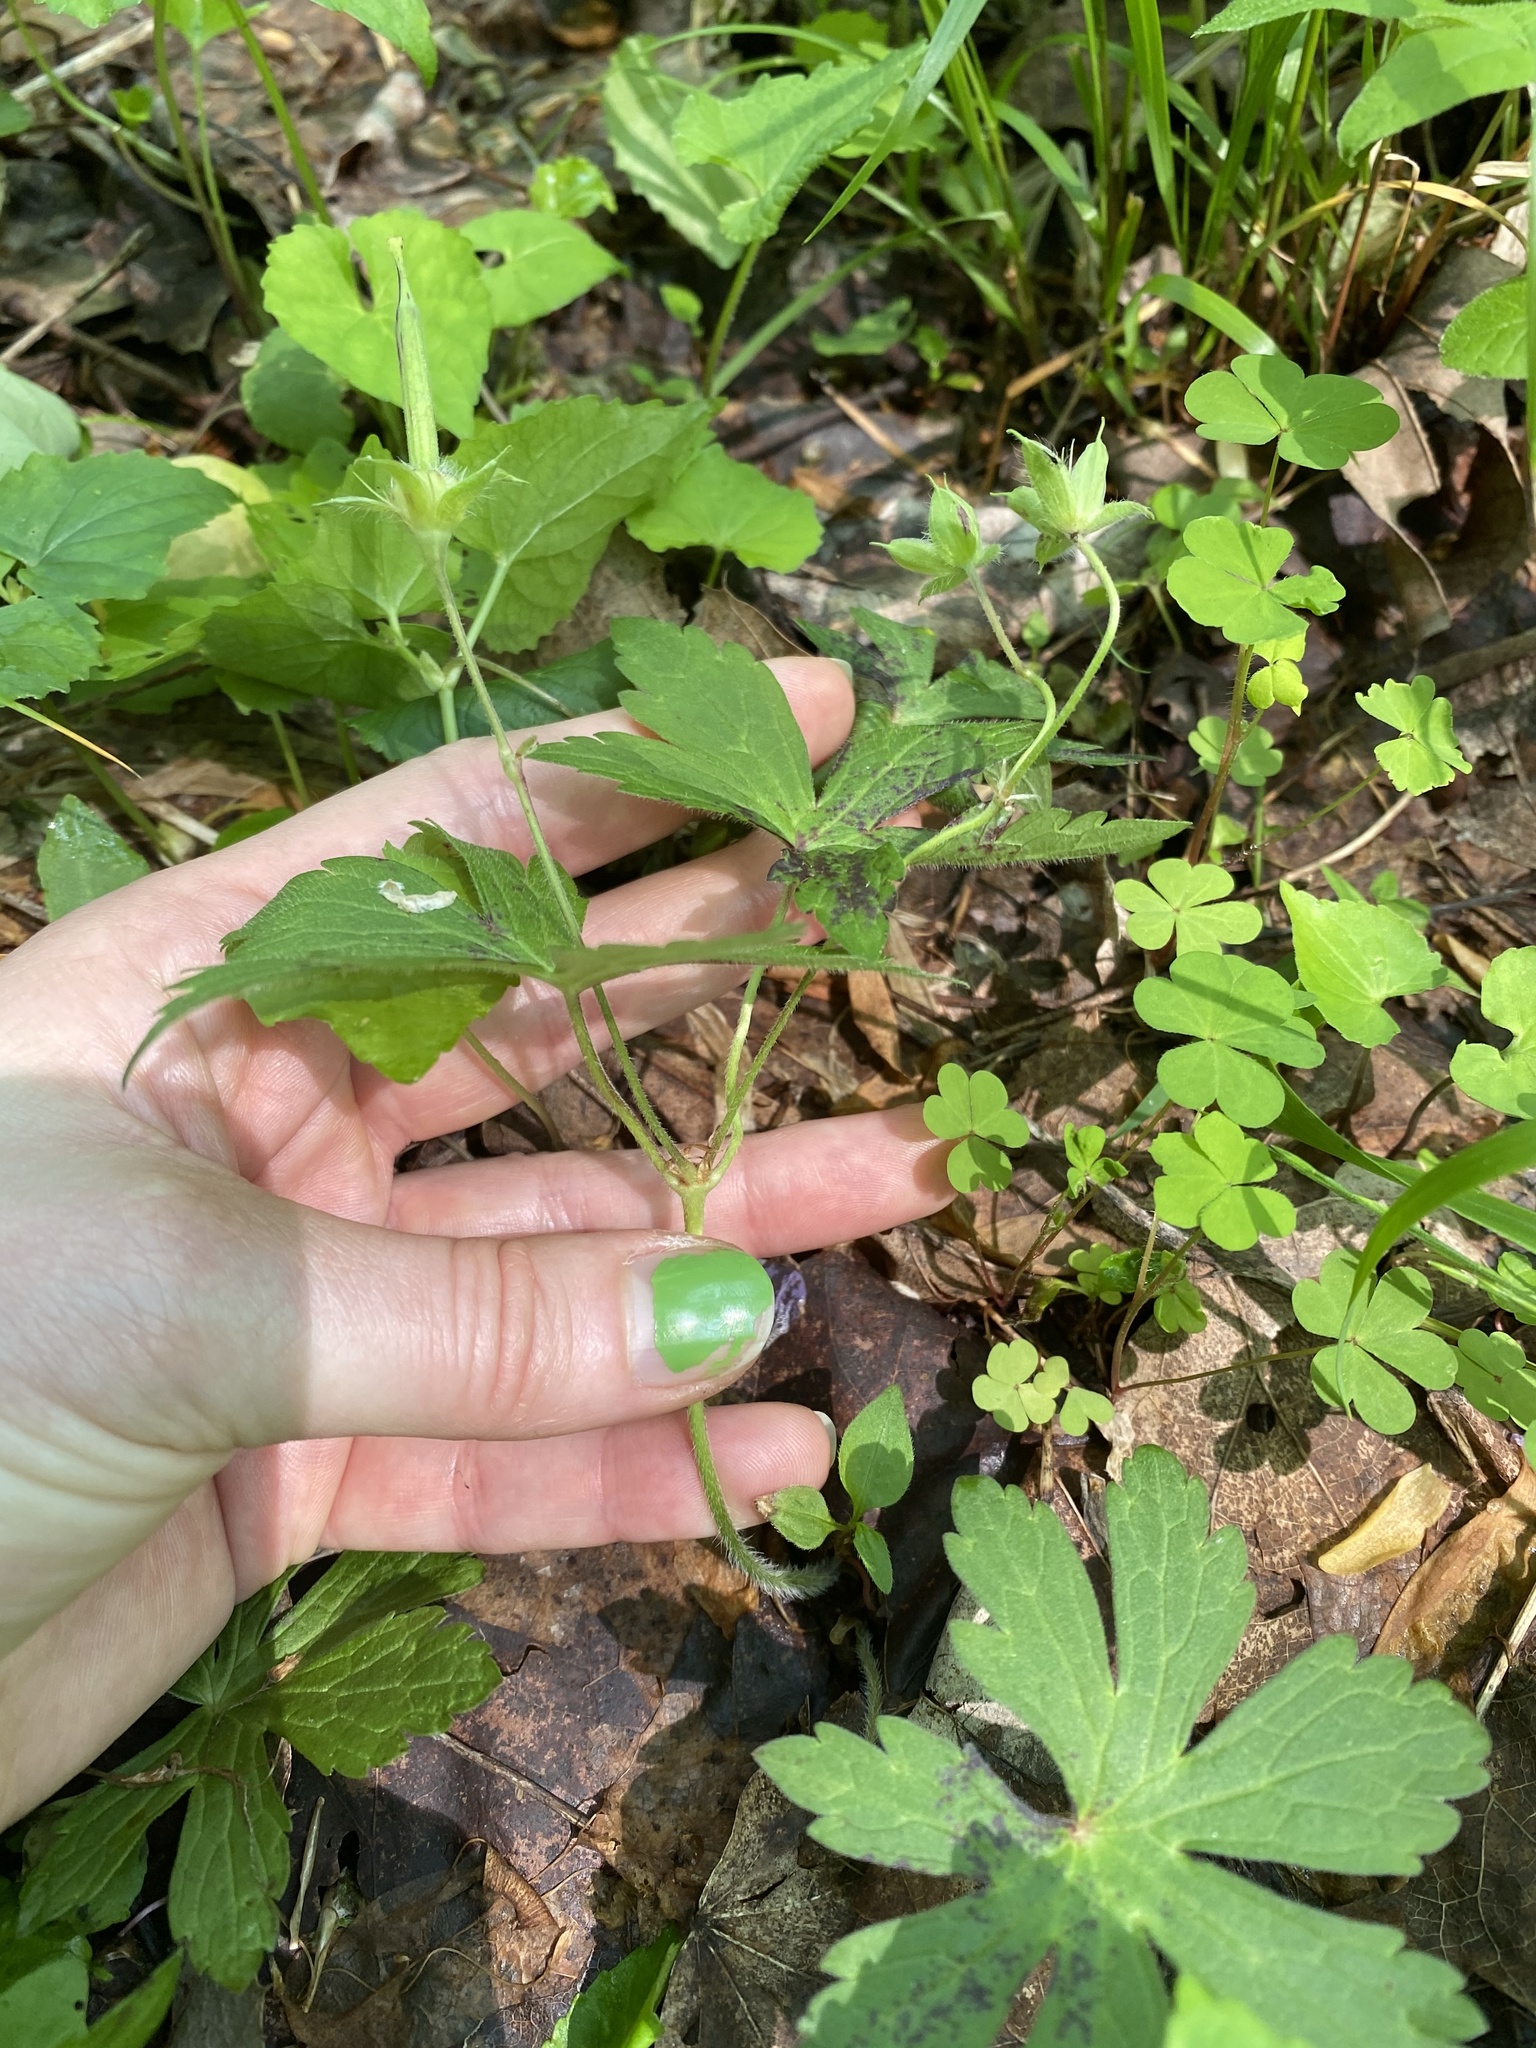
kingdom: Plantae
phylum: Tracheophyta
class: Magnoliopsida
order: Geraniales
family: Geraniaceae
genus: Geranium
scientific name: Geranium maculatum
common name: Spotted geranium
